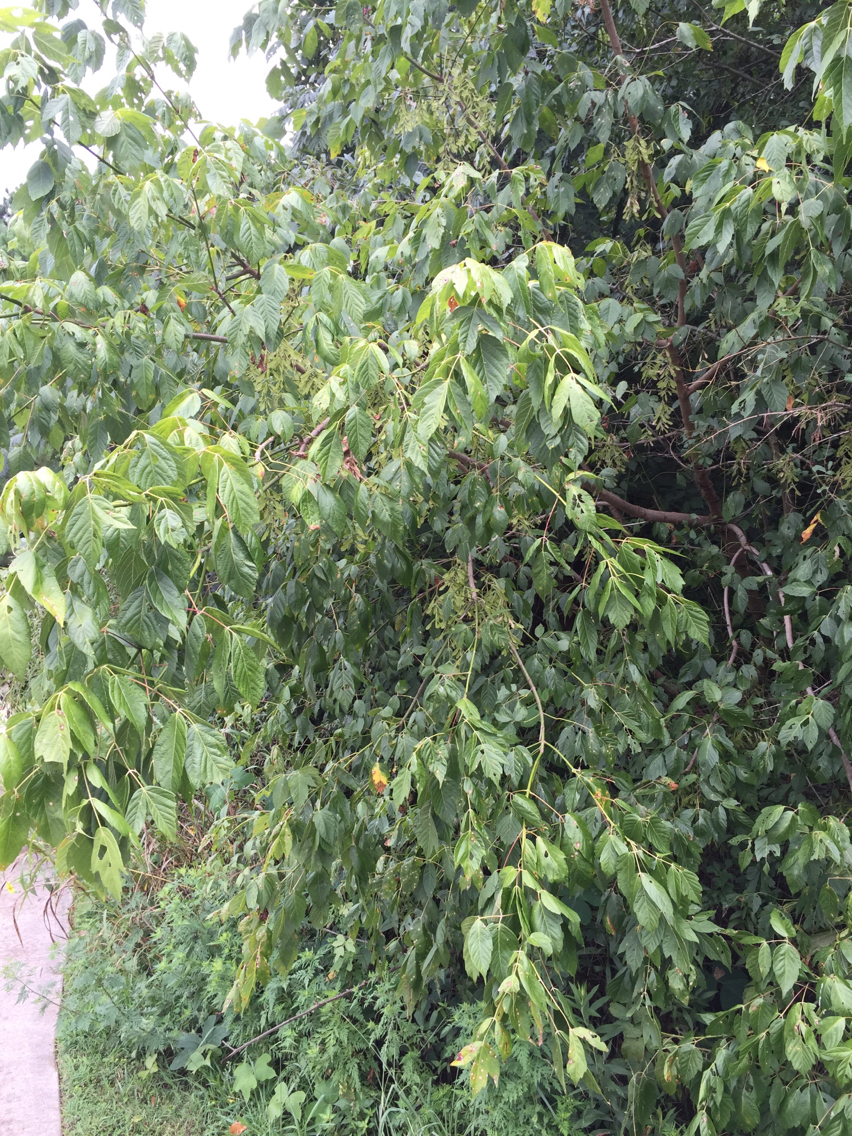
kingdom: Plantae
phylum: Tracheophyta
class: Magnoliopsida
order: Sapindales
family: Sapindaceae
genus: Acer
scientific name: Acer negundo
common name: Ashleaf maple
